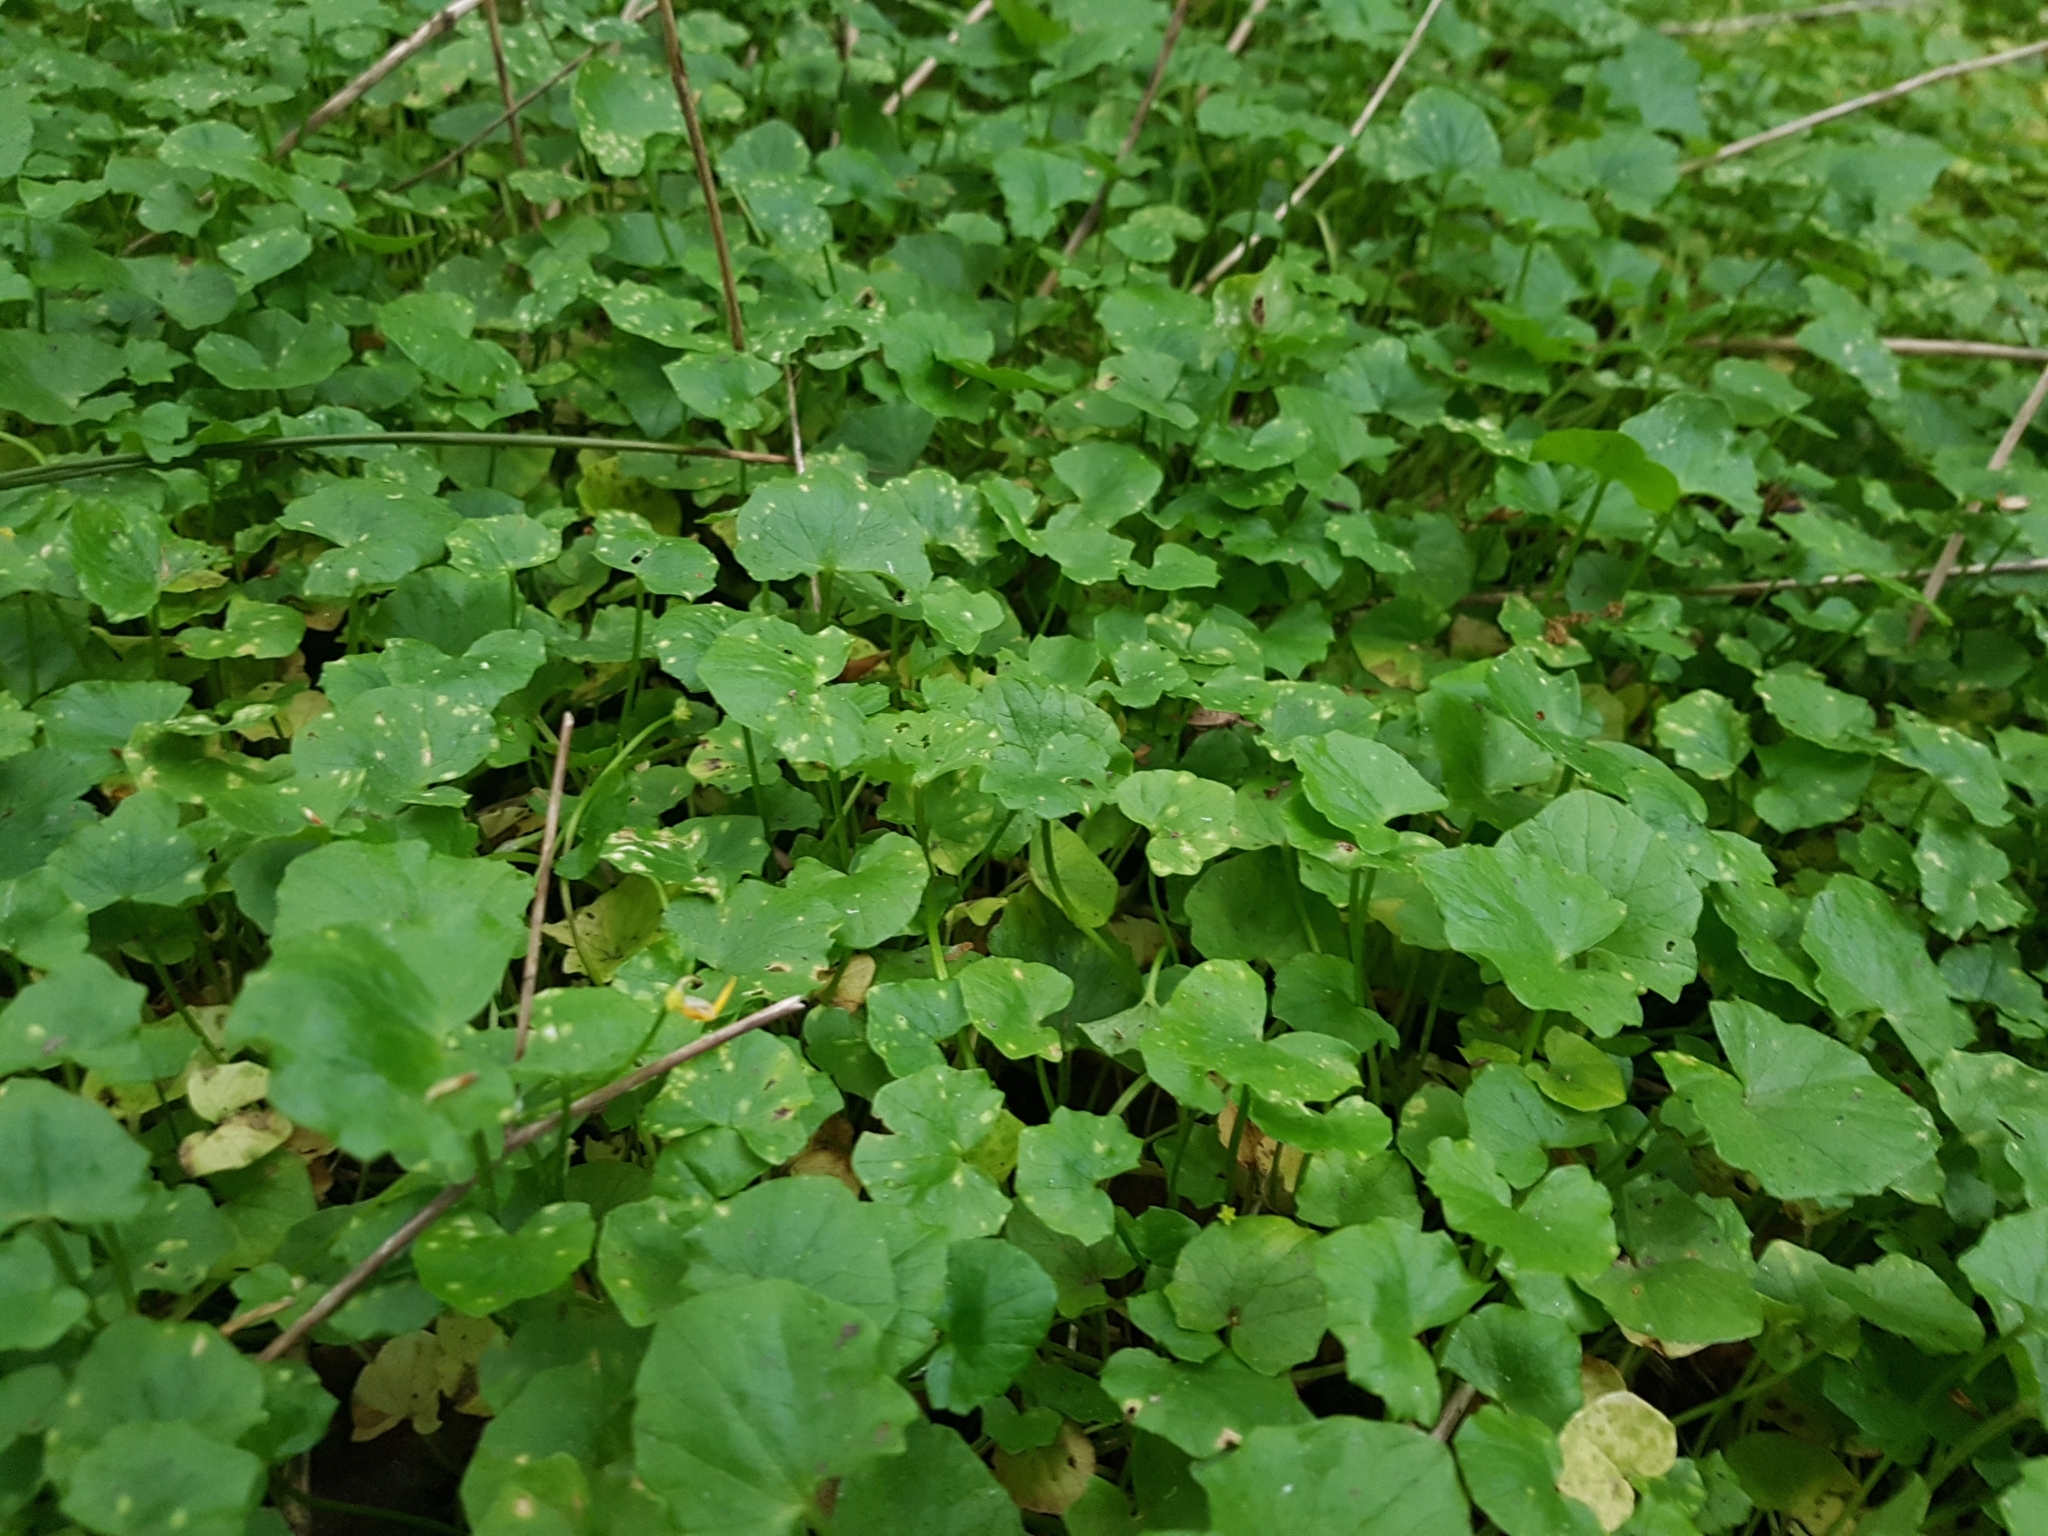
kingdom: Plantae
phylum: Tracheophyta
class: Magnoliopsida
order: Ranunculales
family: Ranunculaceae
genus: Ficaria
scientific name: Ficaria verna
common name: Lesser celandine
